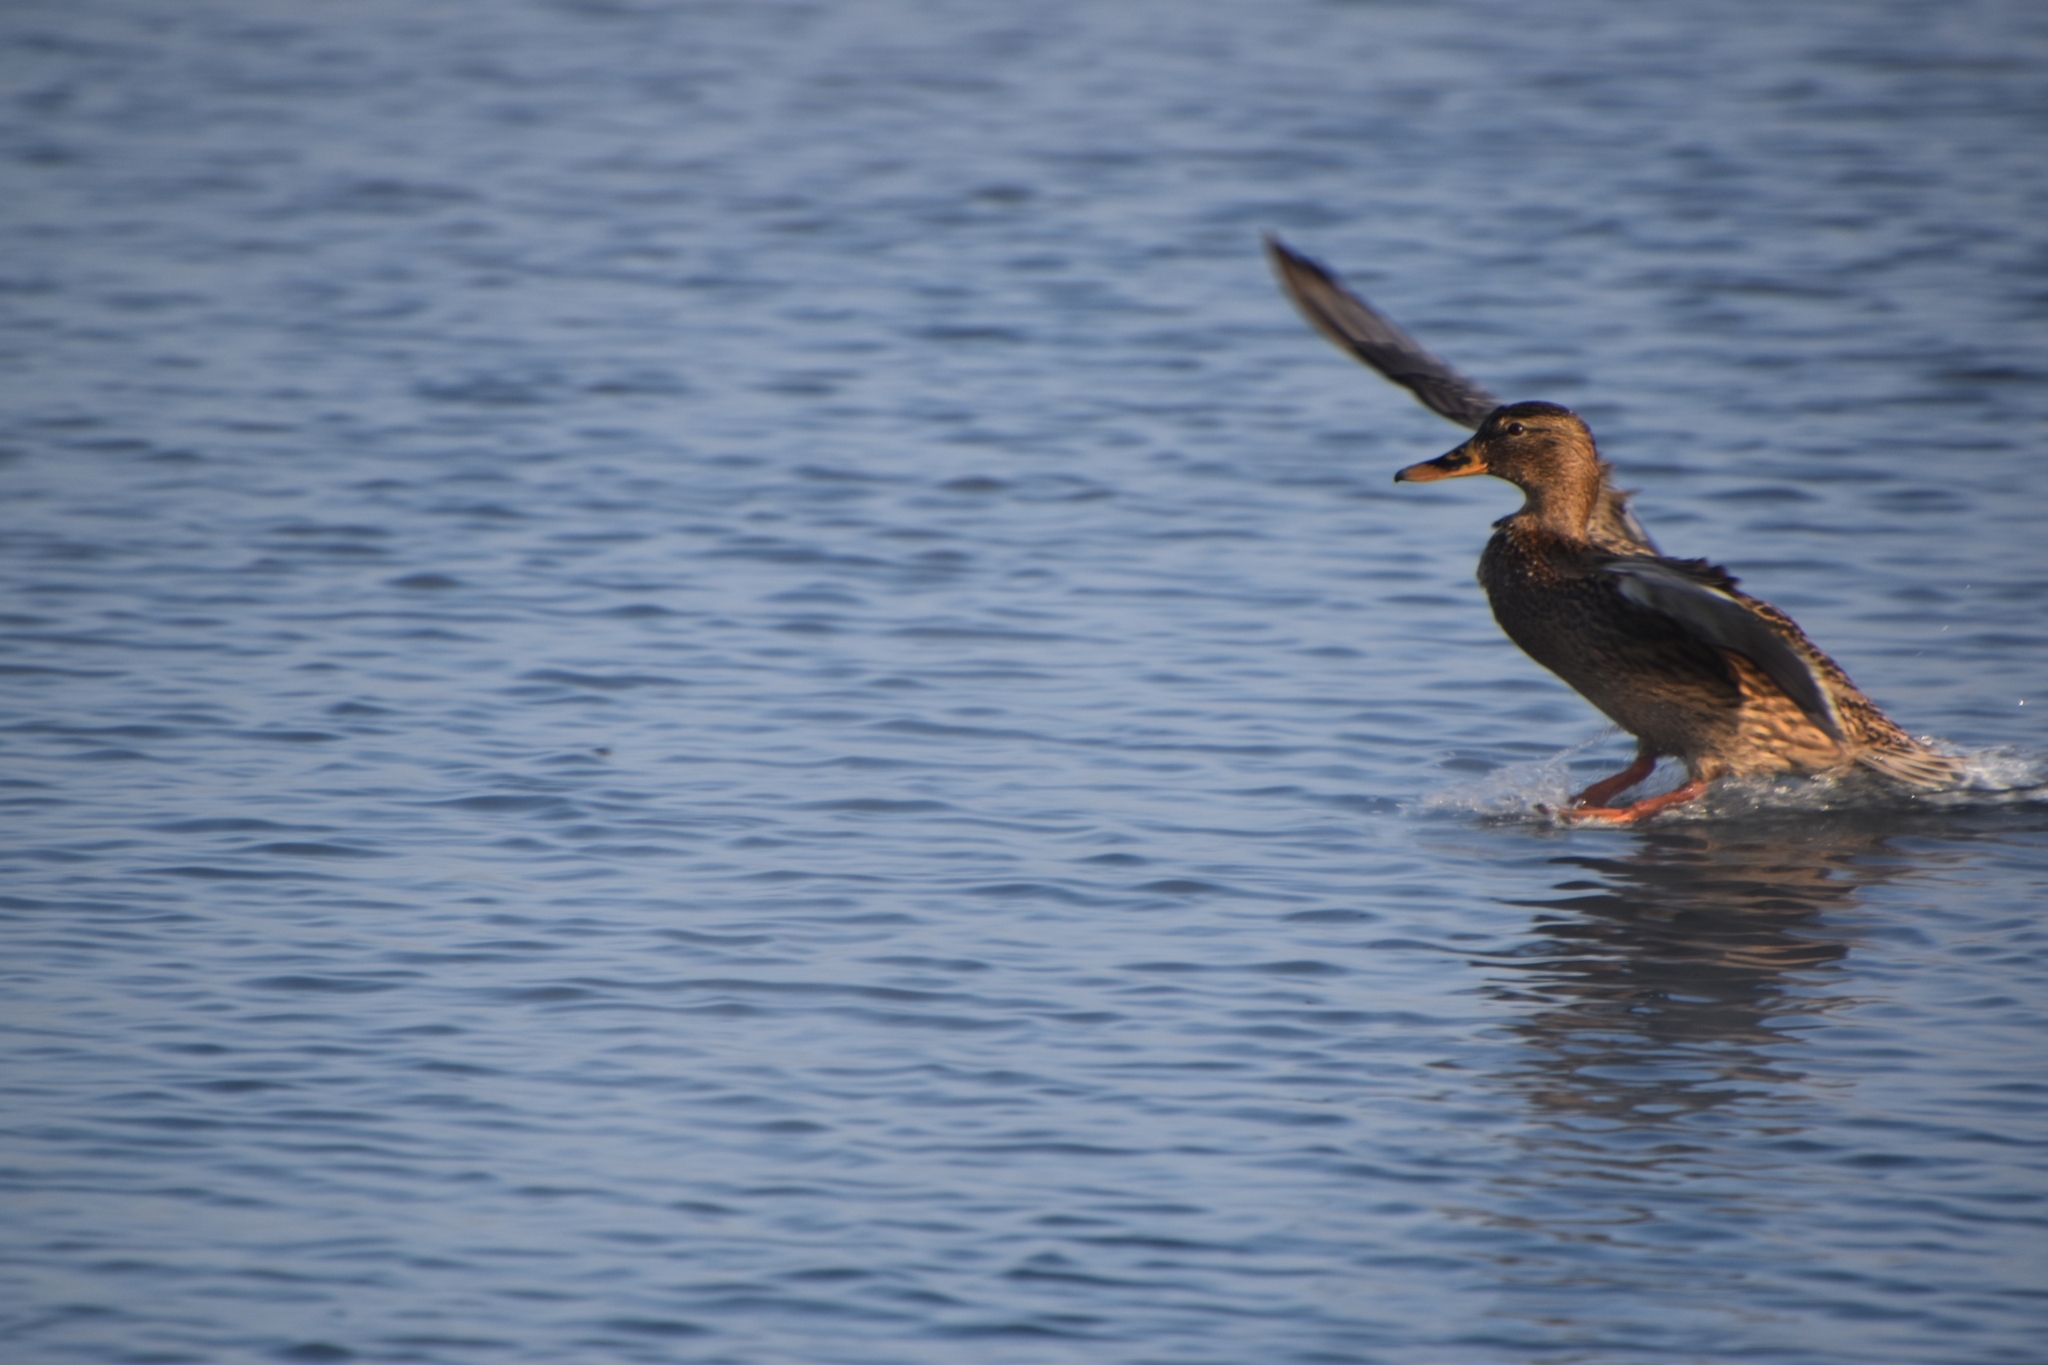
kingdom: Animalia
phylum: Chordata
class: Aves
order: Anseriformes
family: Anatidae
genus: Anas
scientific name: Anas platyrhynchos
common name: Mallard
